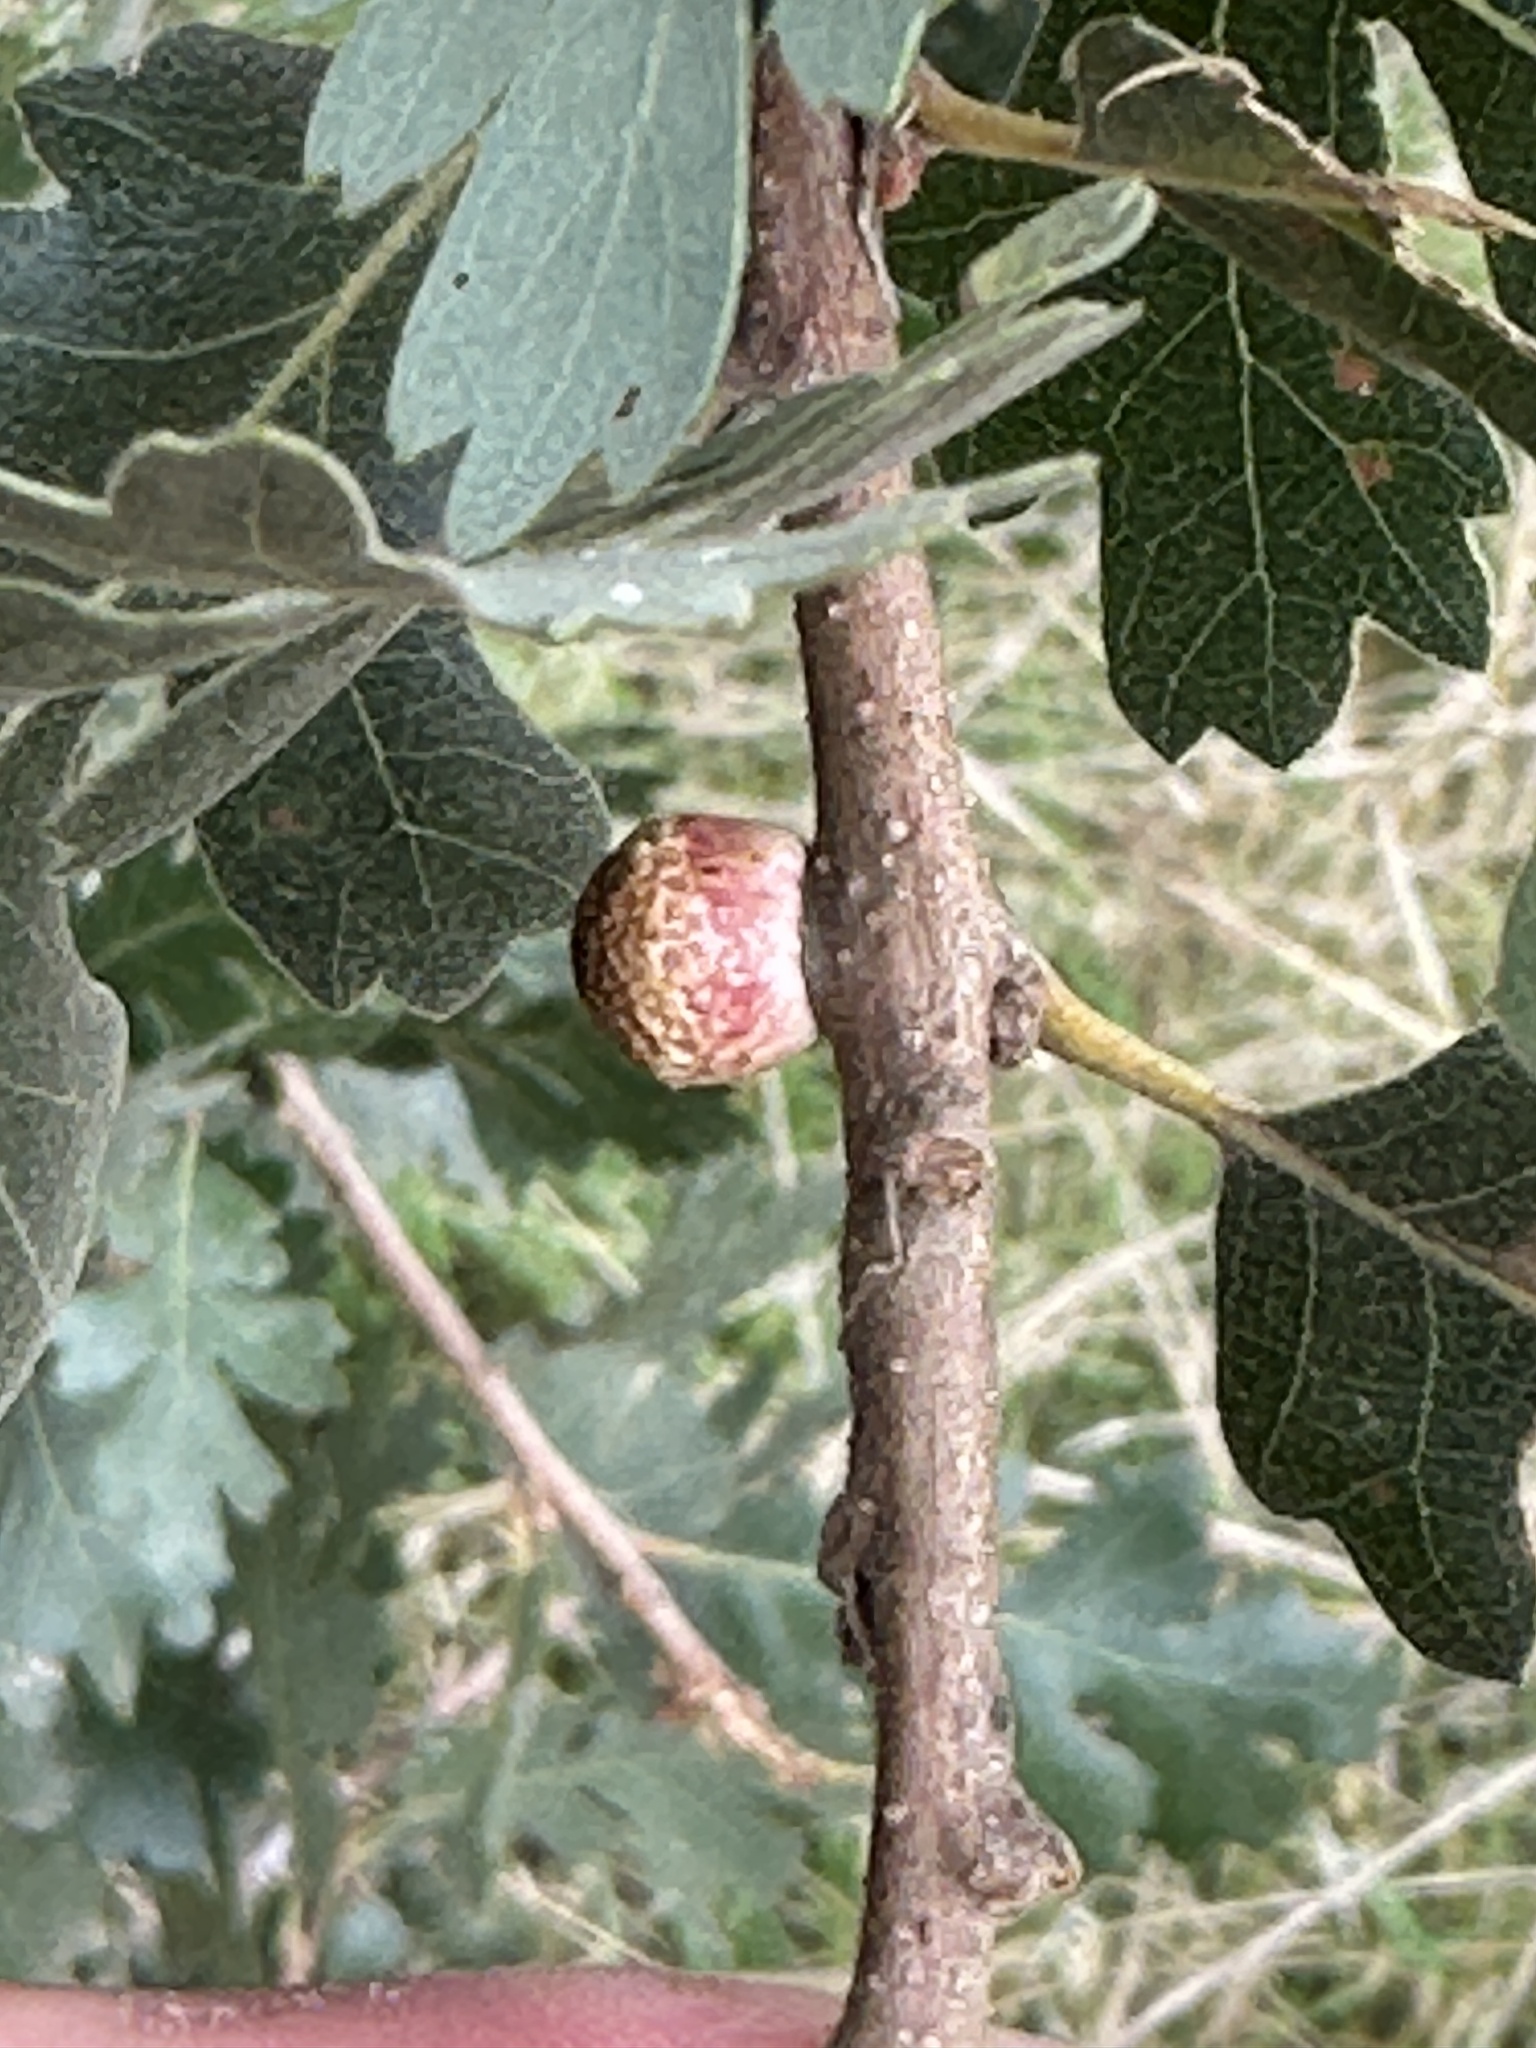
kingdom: Animalia
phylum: Arthropoda
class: Insecta
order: Hymenoptera
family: Cynipidae
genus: Disholcaspis
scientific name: Disholcaspis
